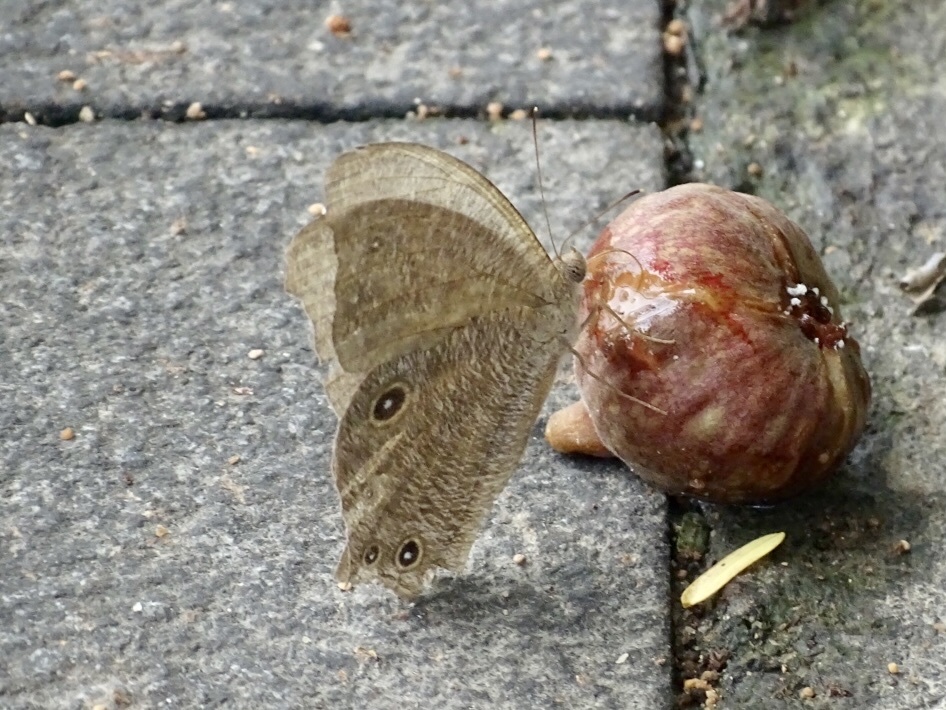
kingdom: Animalia
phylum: Arthropoda
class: Insecta
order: Lepidoptera
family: Nymphalidae
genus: Melanitis
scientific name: Melanitis leda
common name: Twilight brown
